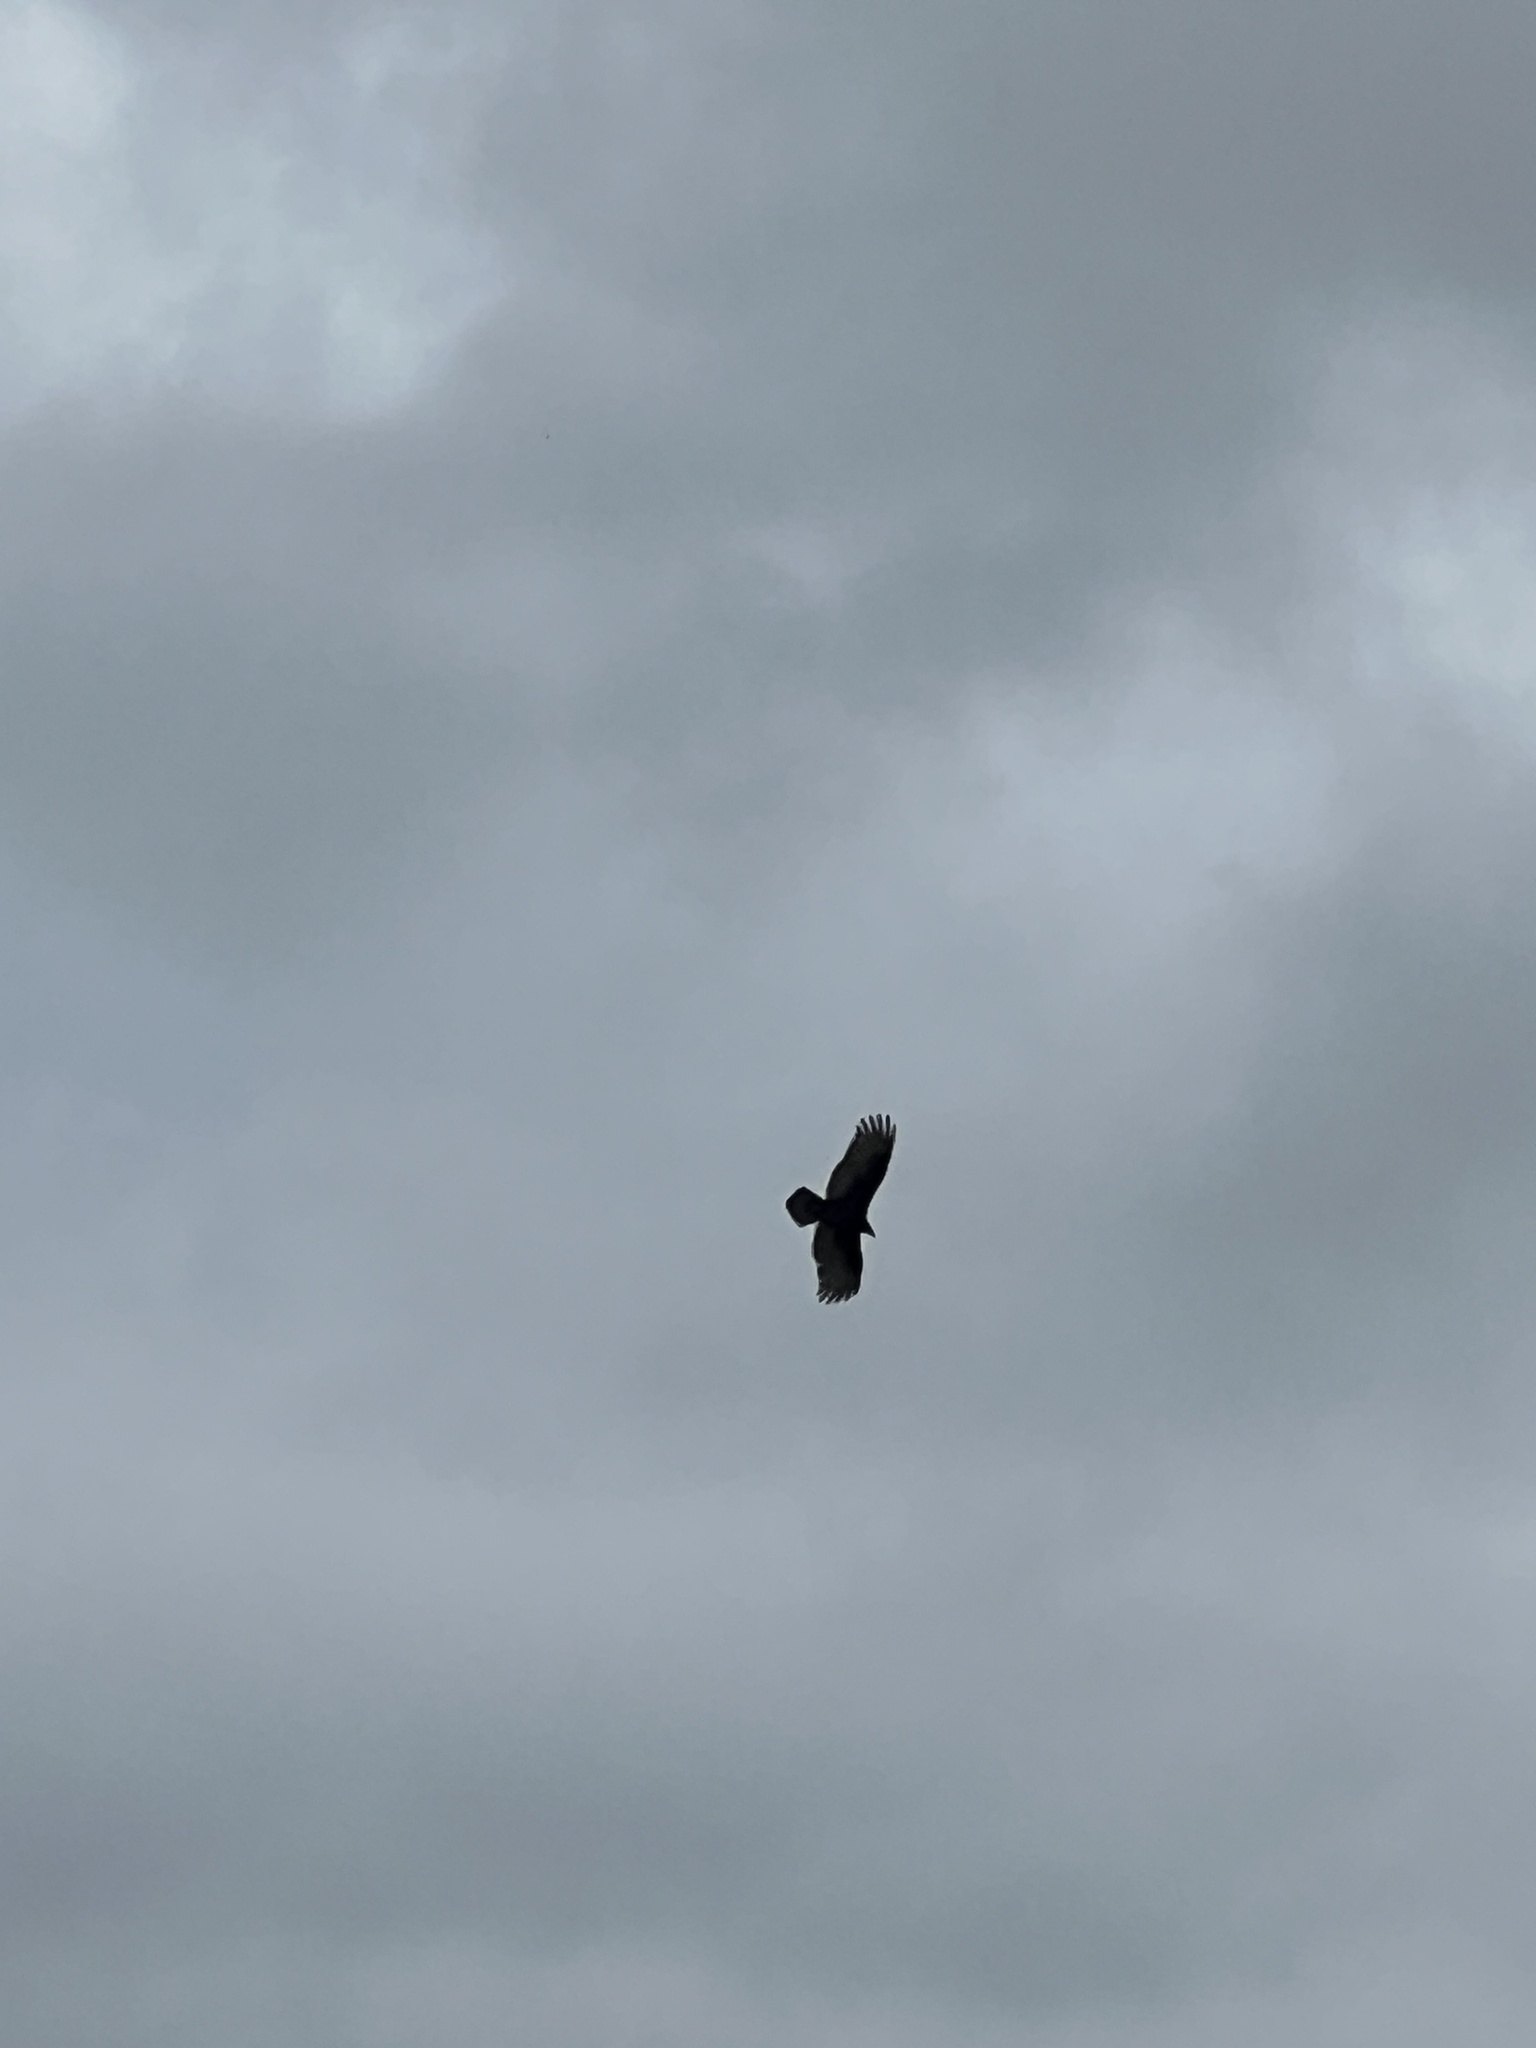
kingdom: Animalia
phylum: Chordata
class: Aves
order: Accipitriformes
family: Cathartidae
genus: Cathartes
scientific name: Cathartes aura
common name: Turkey vulture
